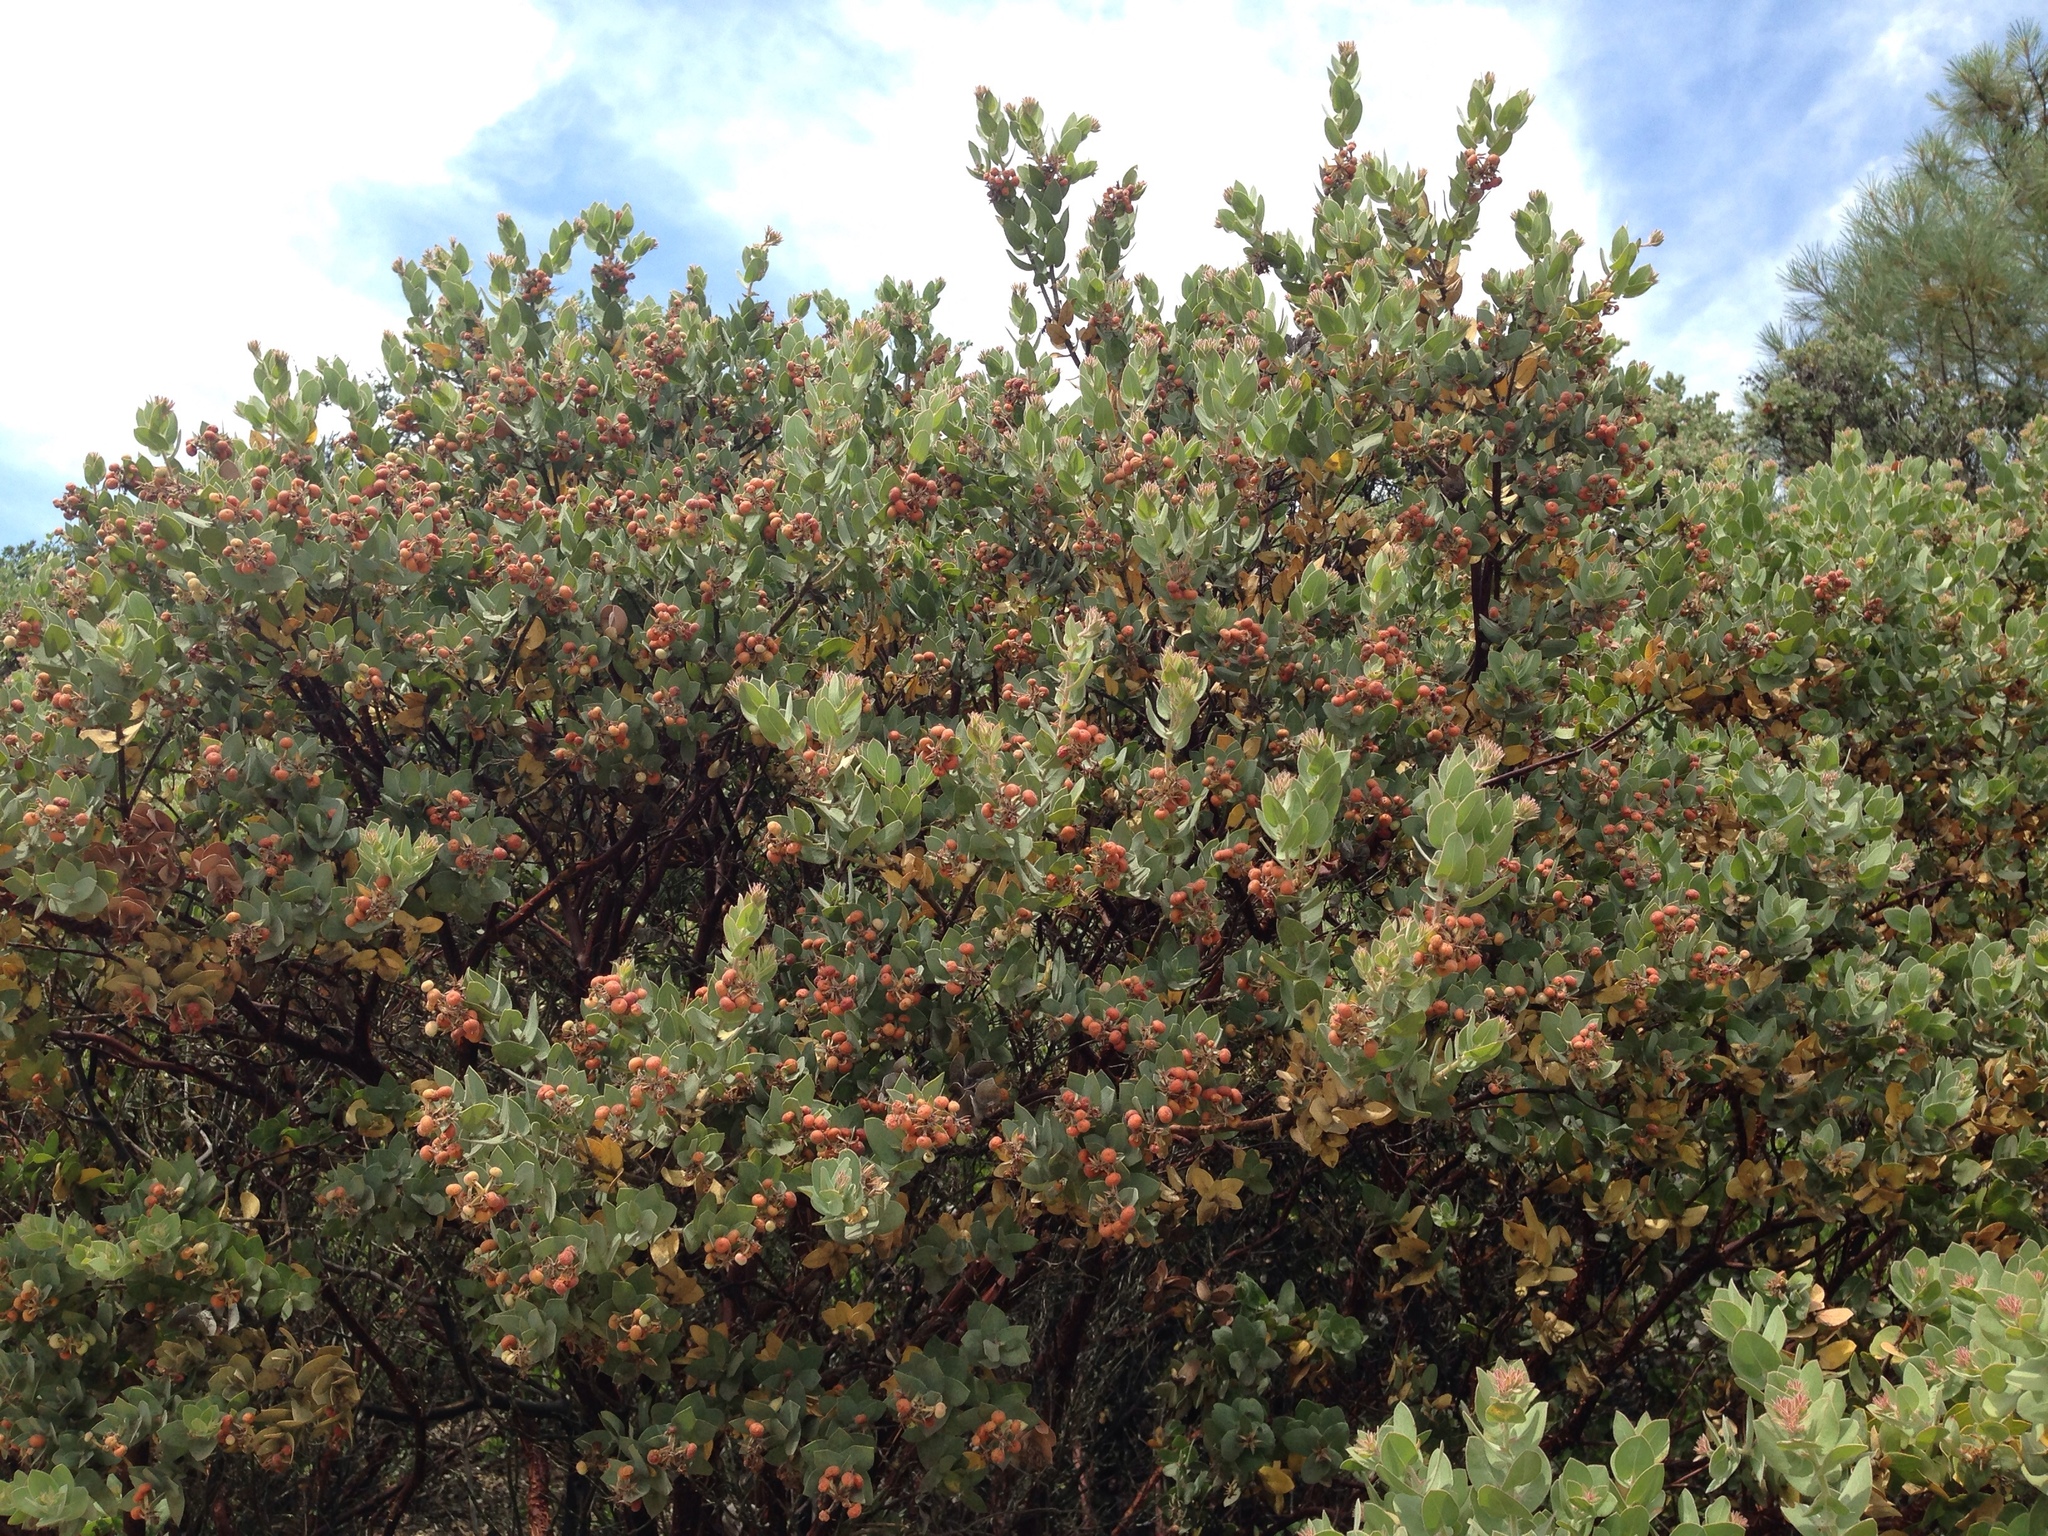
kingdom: Plantae
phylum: Tracheophyta
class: Magnoliopsida
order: Ericales
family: Ericaceae
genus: Arctostaphylos
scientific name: Arctostaphylos auriculata
